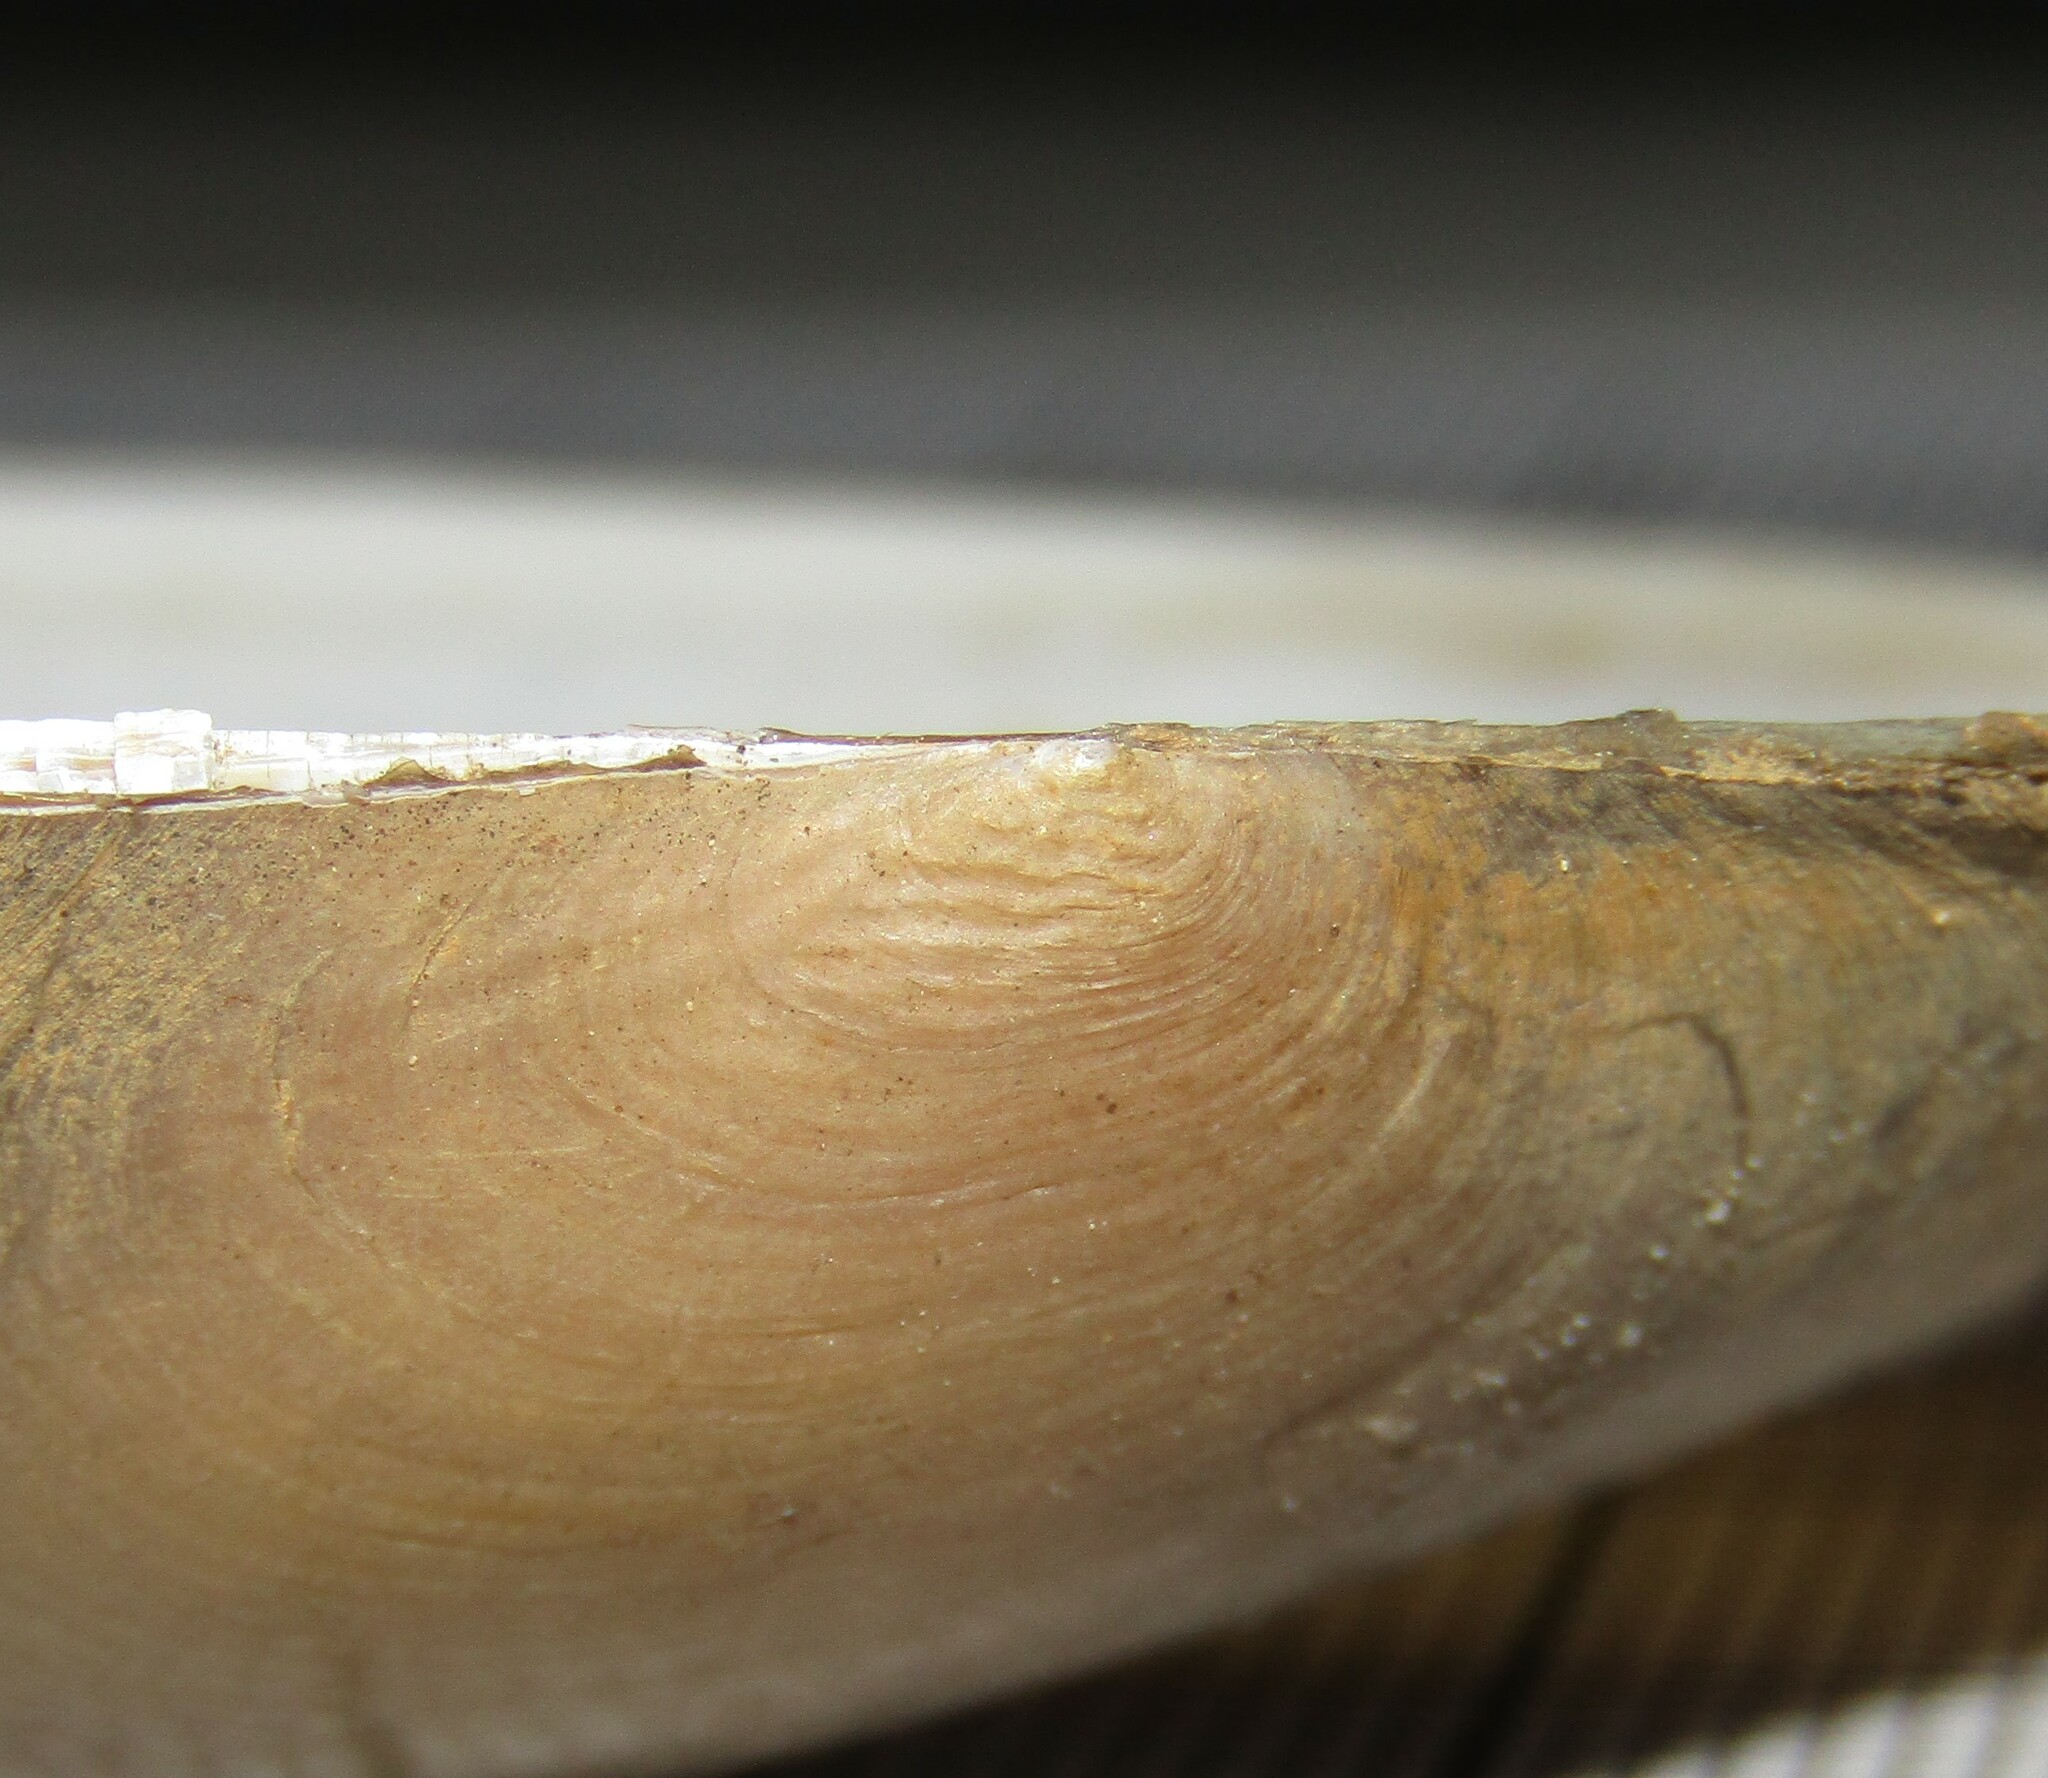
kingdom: Animalia
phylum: Mollusca
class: Bivalvia
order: Unionida
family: Unionidae
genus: Anodonta
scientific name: Anodonta anatina
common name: Duck mussel
